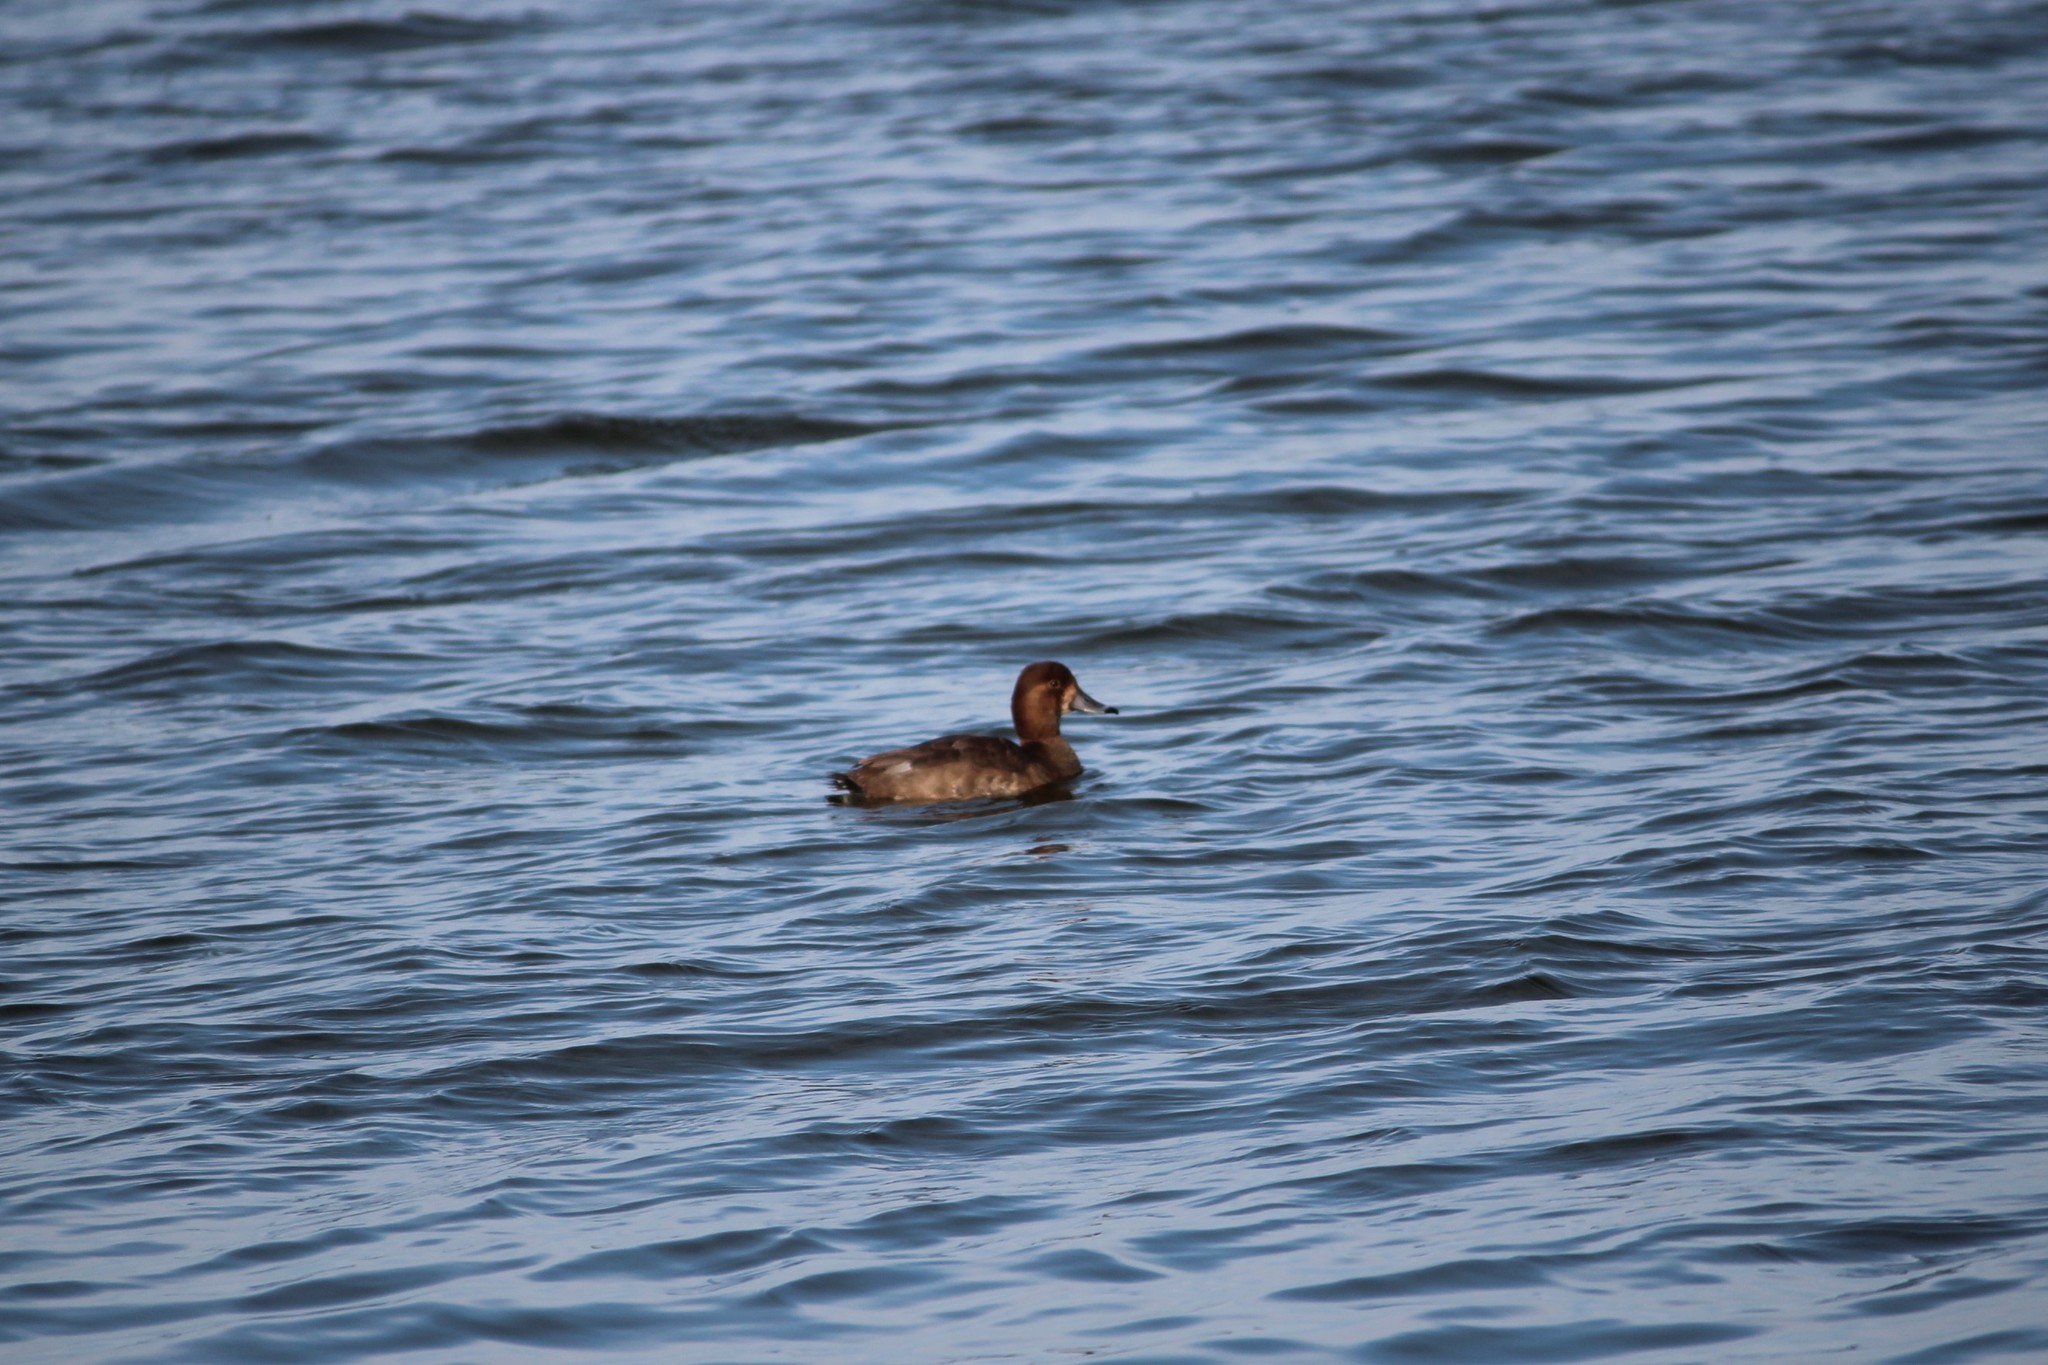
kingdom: Animalia
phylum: Chordata
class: Aves
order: Anseriformes
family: Anatidae
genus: Aythya
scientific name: Aythya marila
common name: Greater scaup
